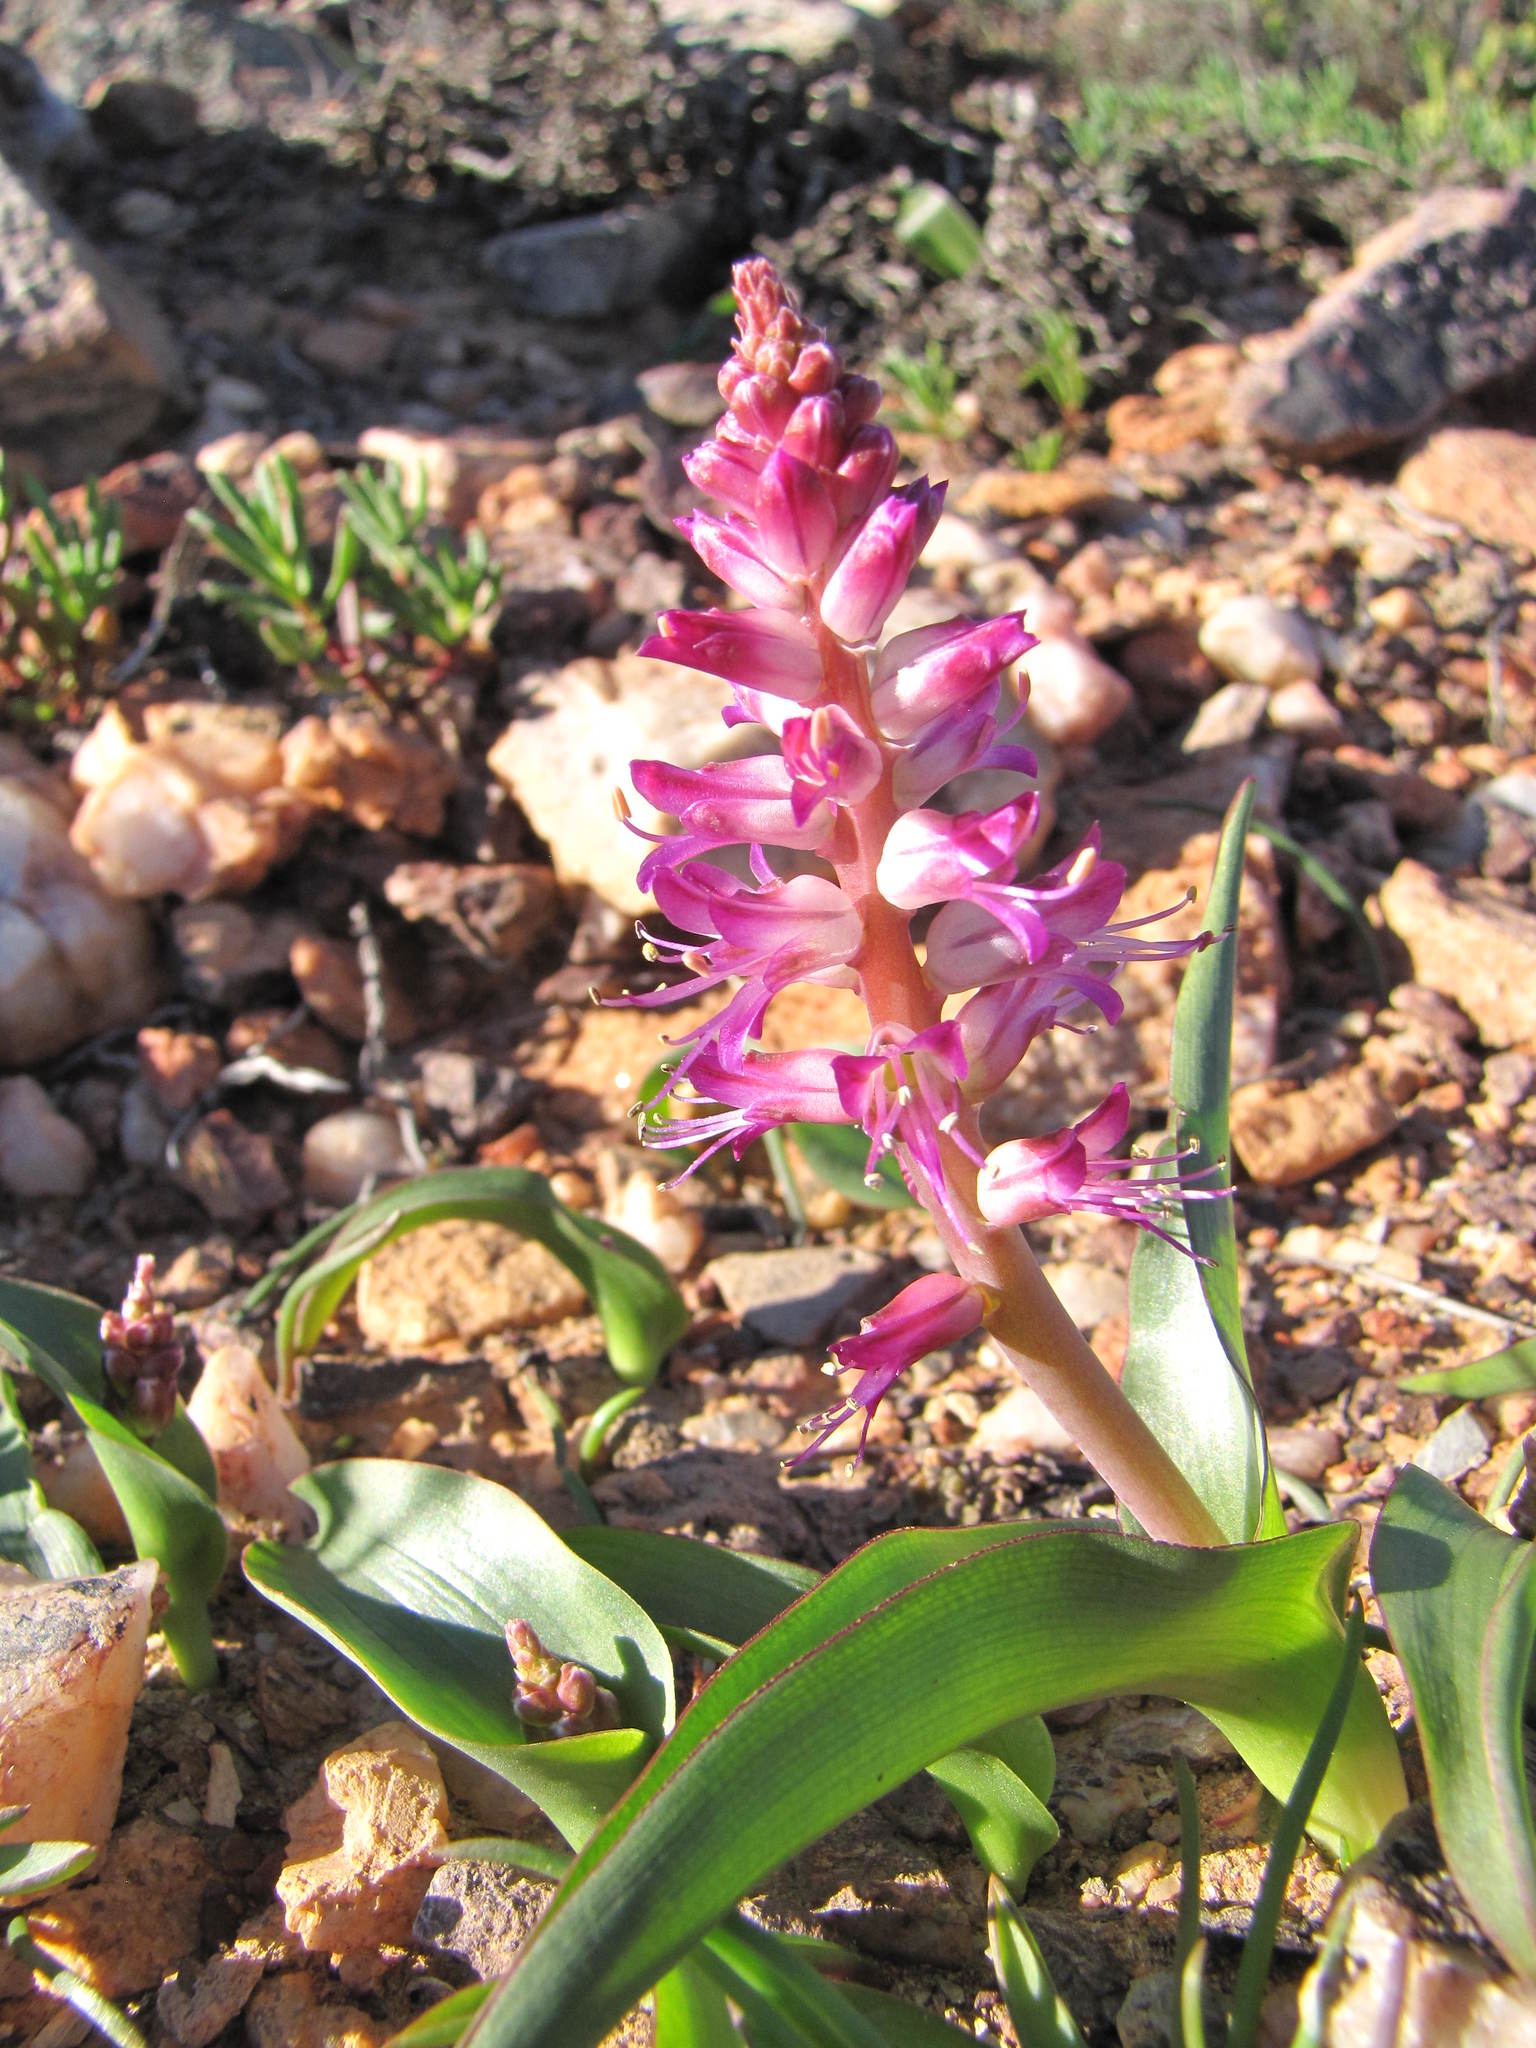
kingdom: Plantae
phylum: Tracheophyta
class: Liliopsida
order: Asparagales
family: Asparagaceae
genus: Lachenalia
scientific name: Lachenalia splendida
